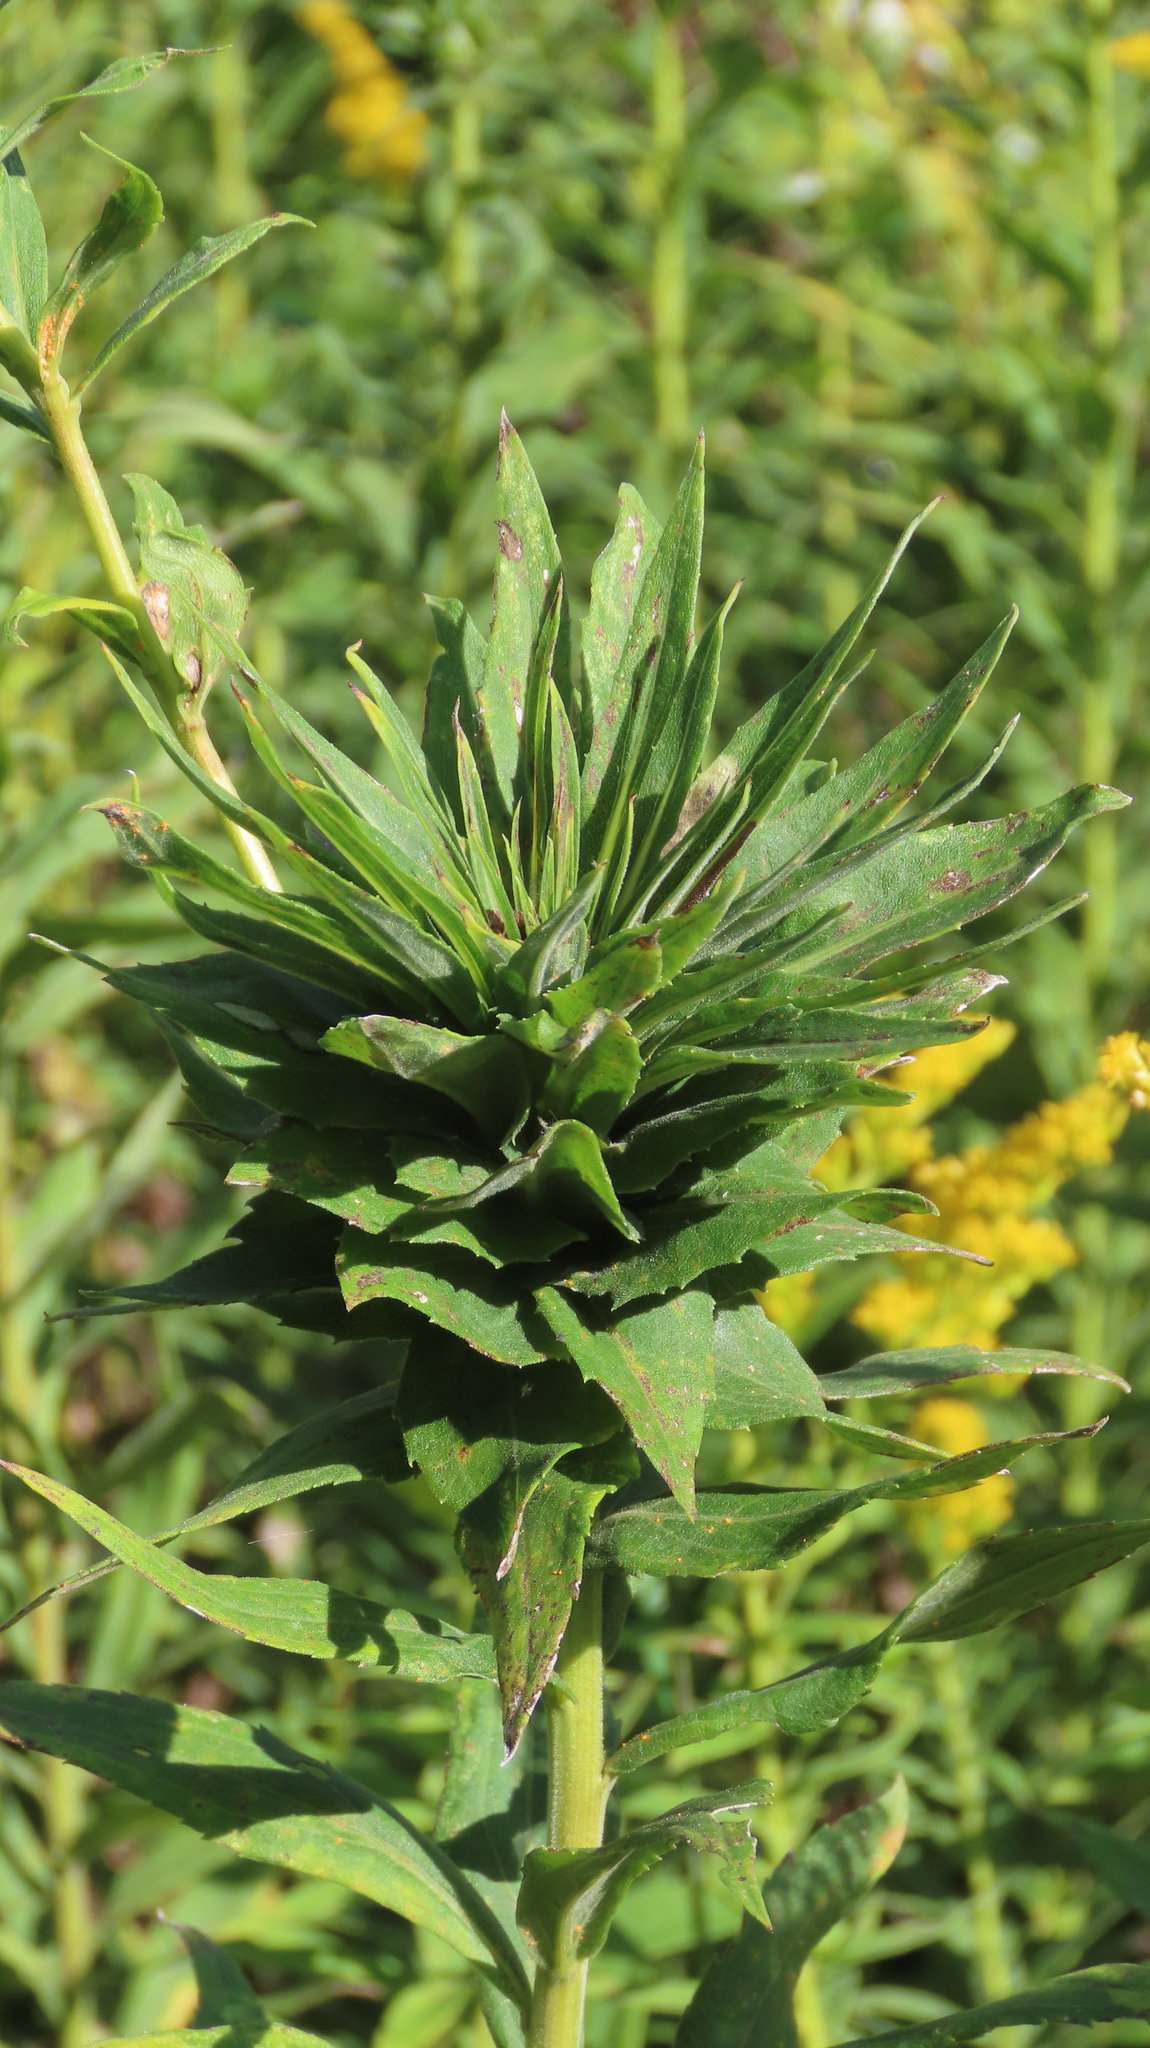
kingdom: Animalia
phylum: Arthropoda
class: Insecta
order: Diptera
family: Cecidomyiidae
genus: Rhopalomyia
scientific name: Rhopalomyia solidaginis
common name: Goldenrod bunch gall midge
